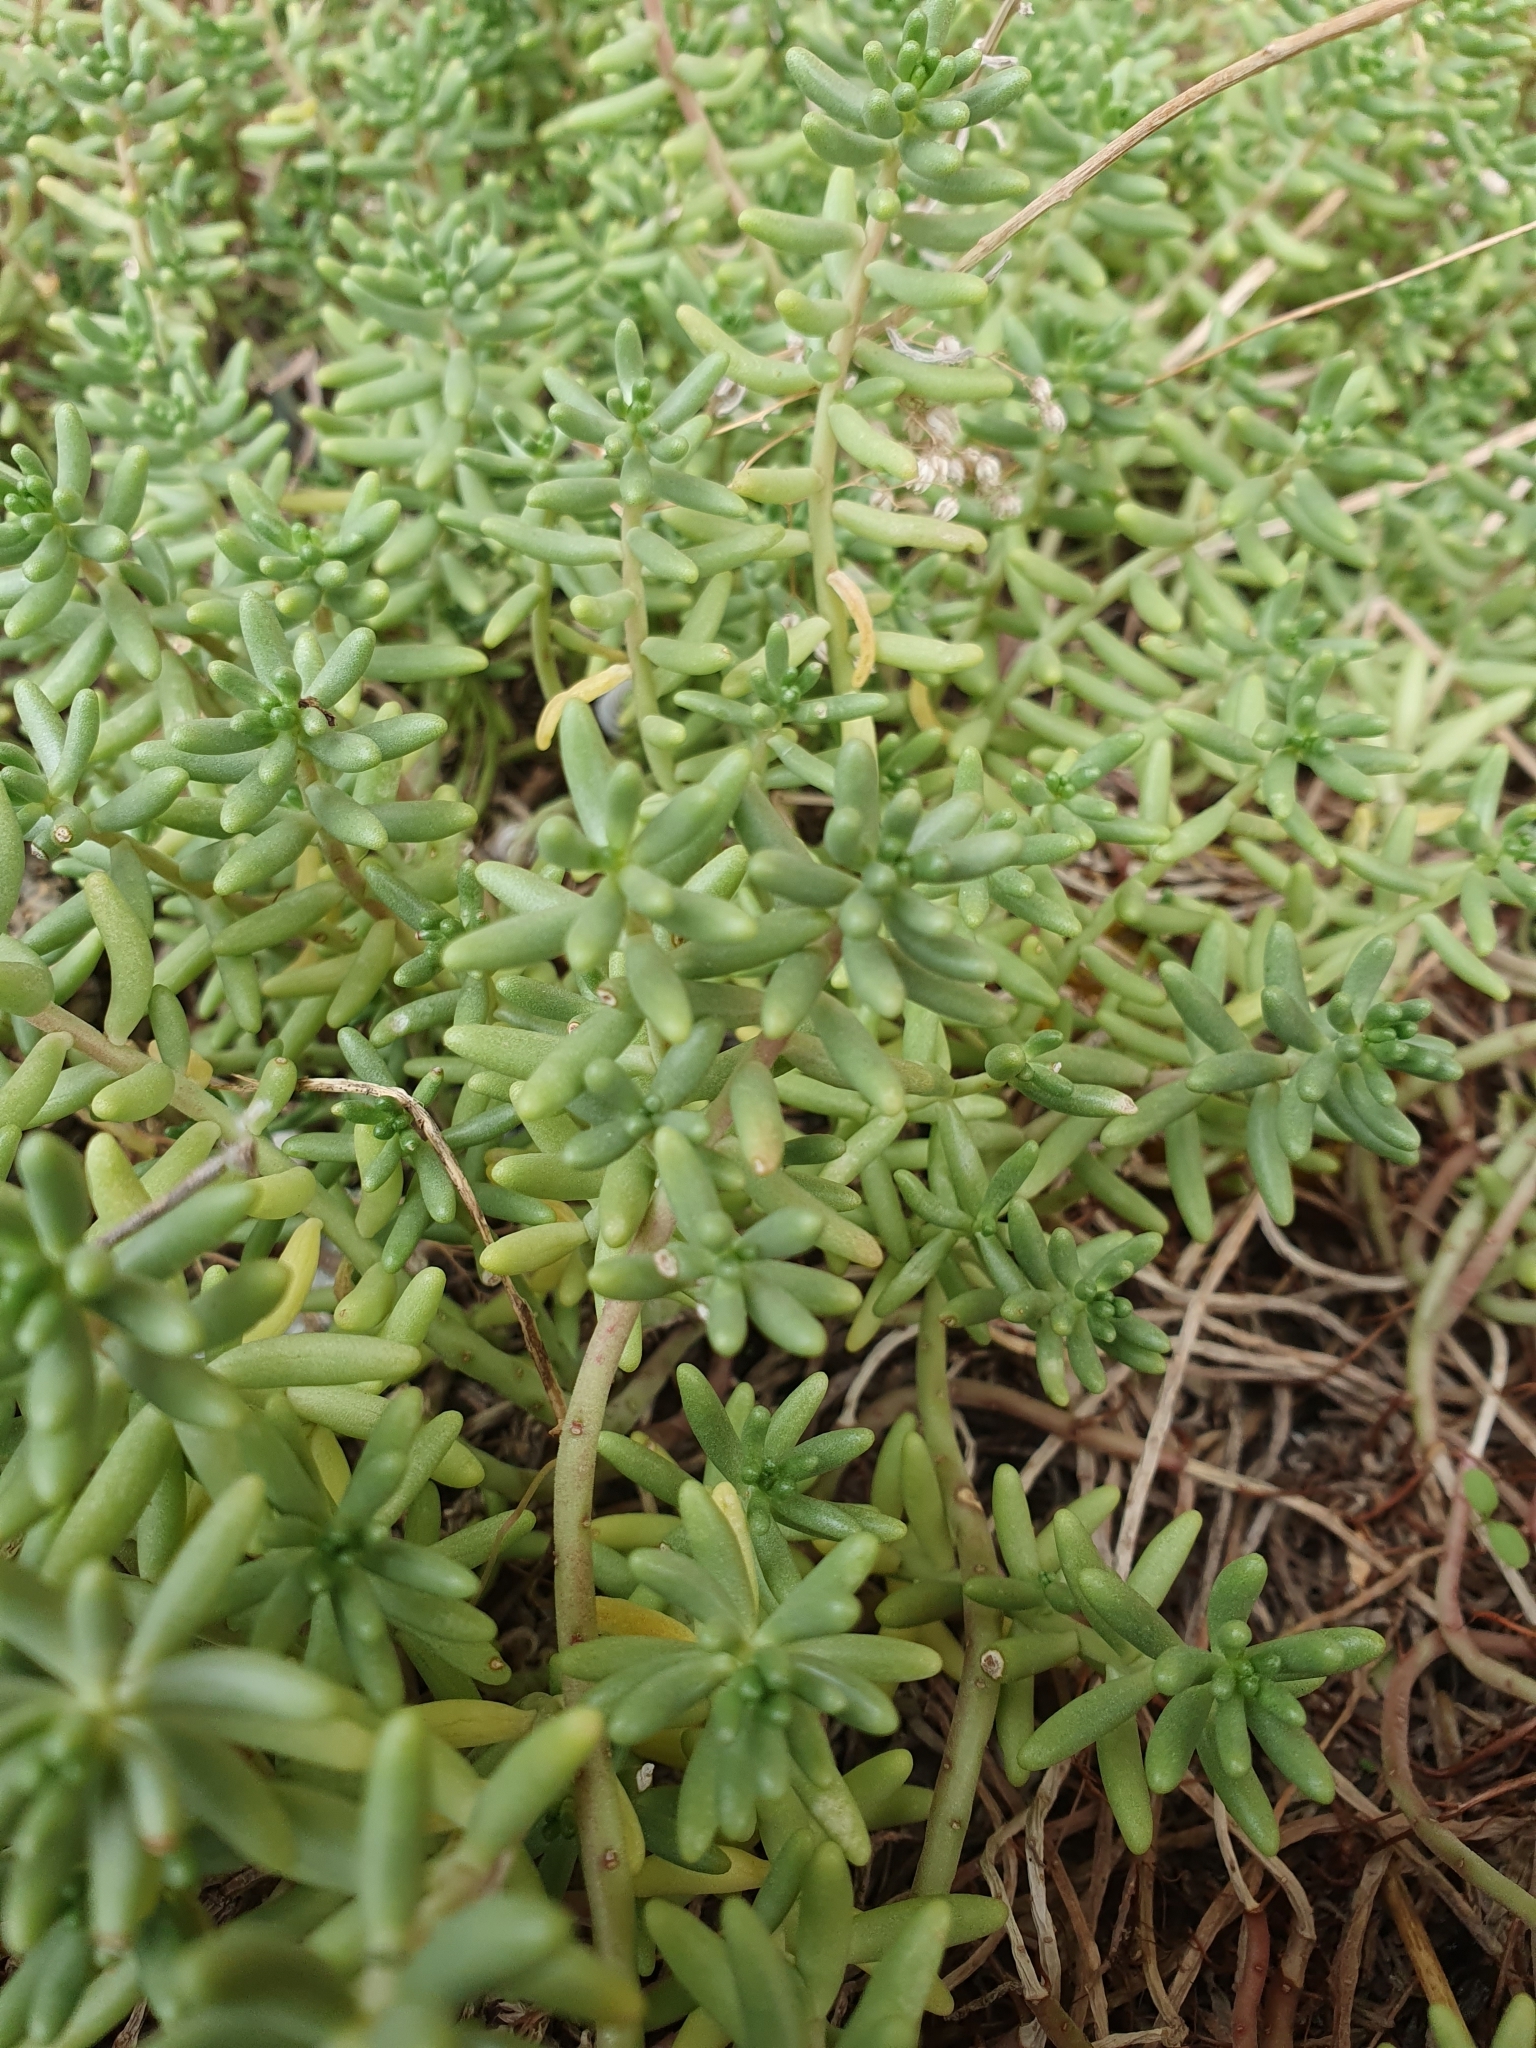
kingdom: Plantae
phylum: Tracheophyta
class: Magnoliopsida
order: Saxifragales
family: Crassulaceae
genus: Sedum
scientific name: Sedum album
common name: White stonecrop
